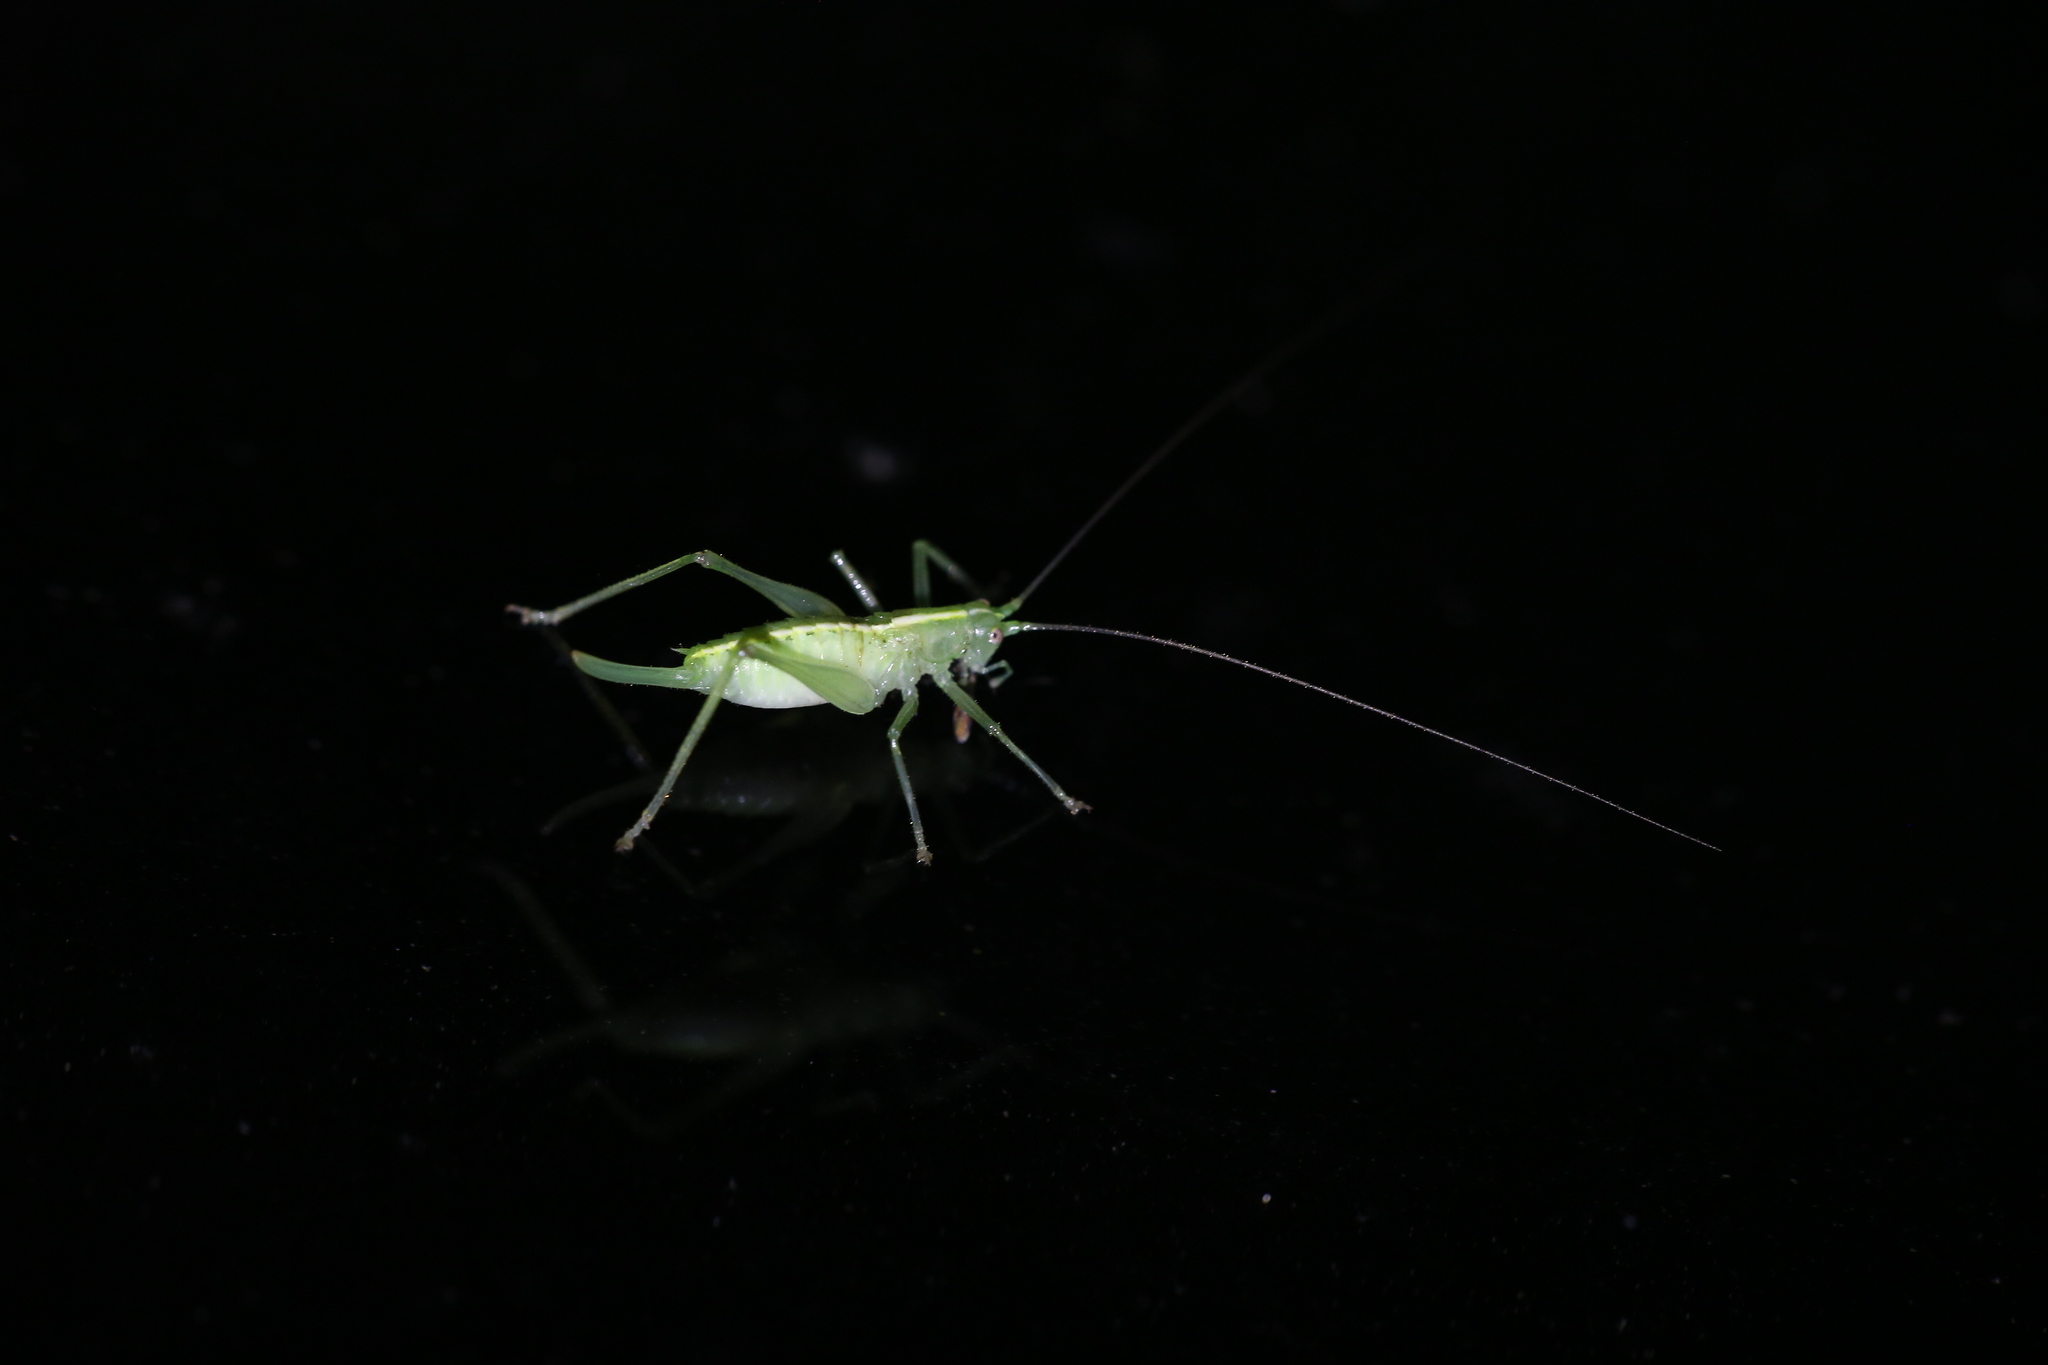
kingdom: Animalia
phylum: Arthropoda
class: Insecta
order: Orthoptera
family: Tettigoniidae
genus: Meconema
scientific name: Meconema meridionale
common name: Southern oak bush-cricket
